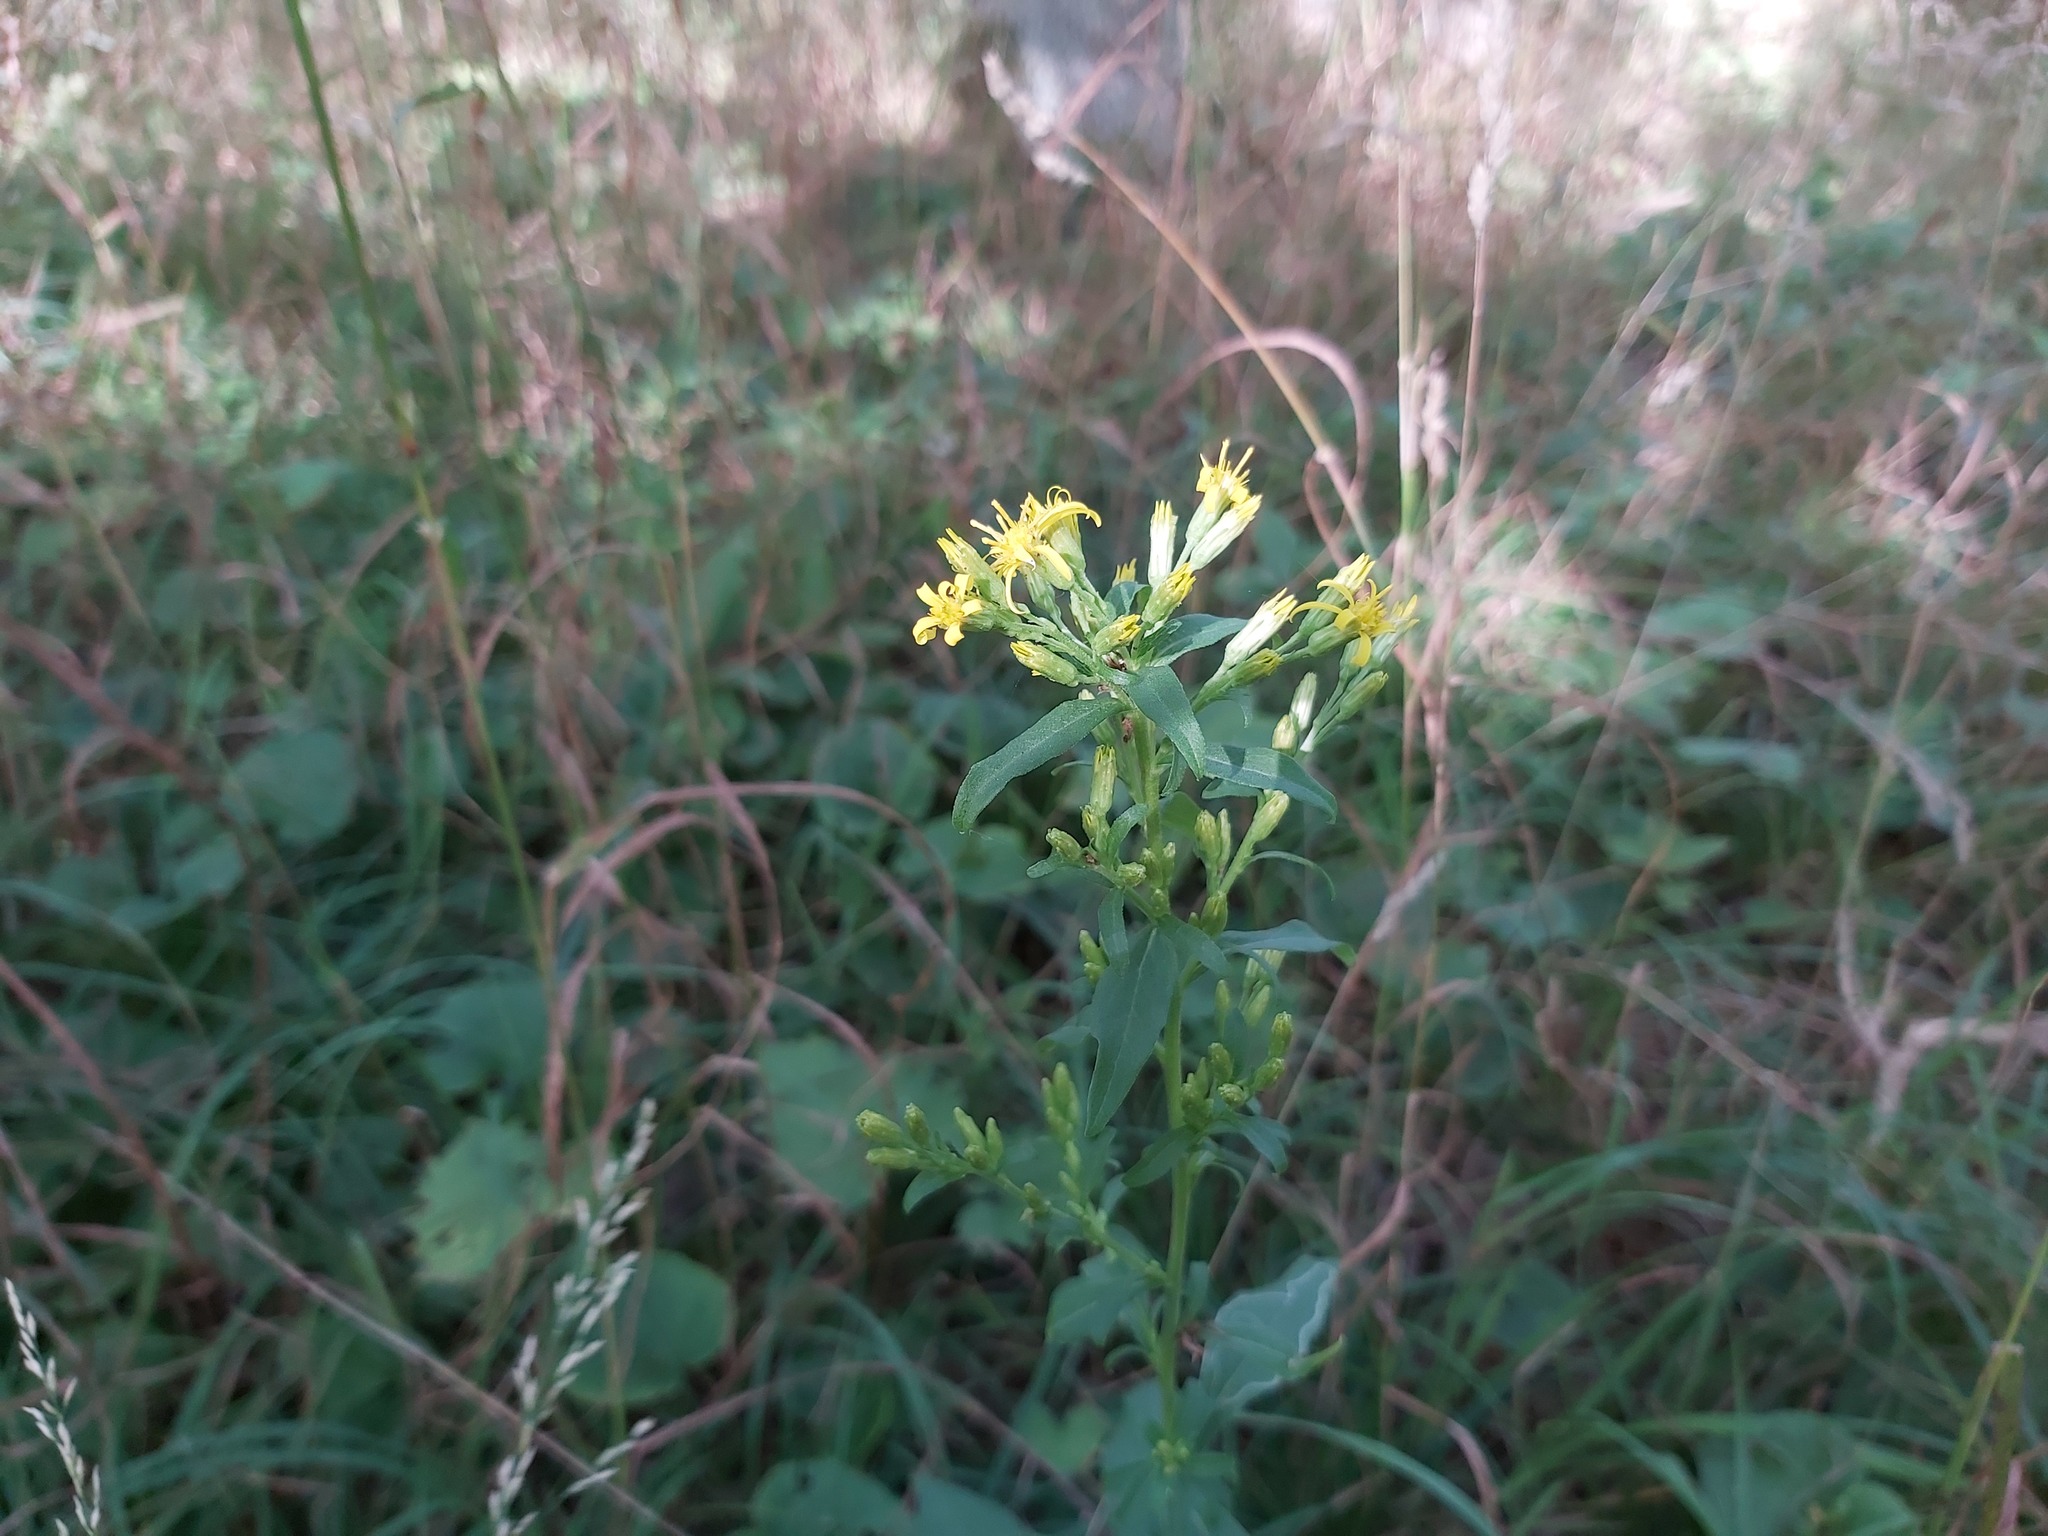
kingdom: Plantae
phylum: Tracheophyta
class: Magnoliopsida
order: Asterales
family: Asteraceae
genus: Solidago
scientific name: Solidago virgaurea
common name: Goldenrod
